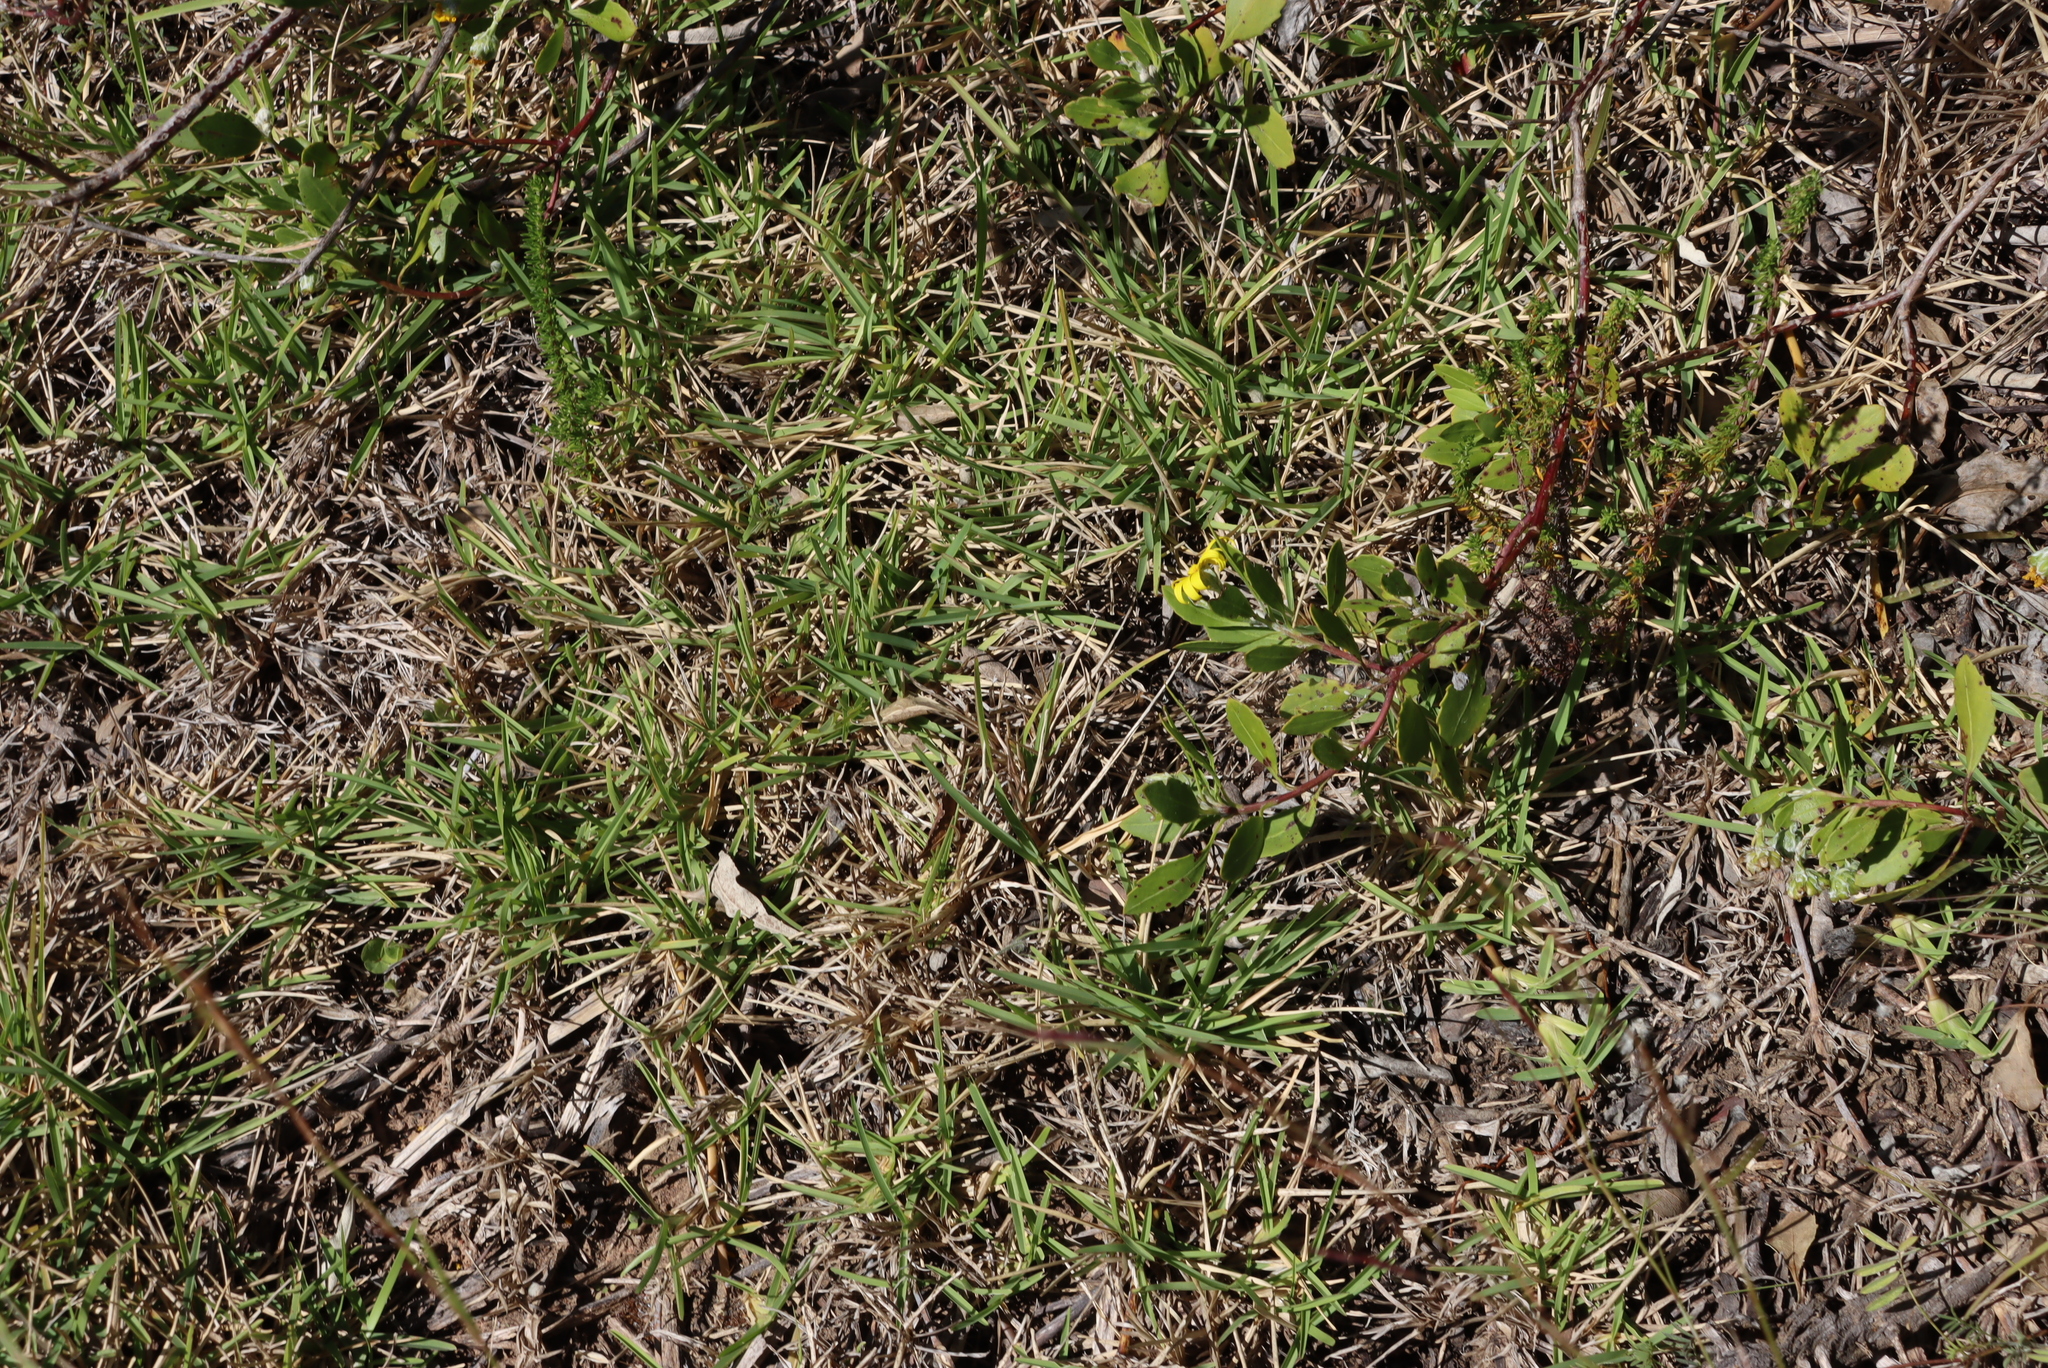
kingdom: Plantae
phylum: Tracheophyta
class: Liliopsida
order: Poales
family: Poaceae
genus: Stenotaphrum
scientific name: Stenotaphrum secundatum
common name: St. augustine grass
